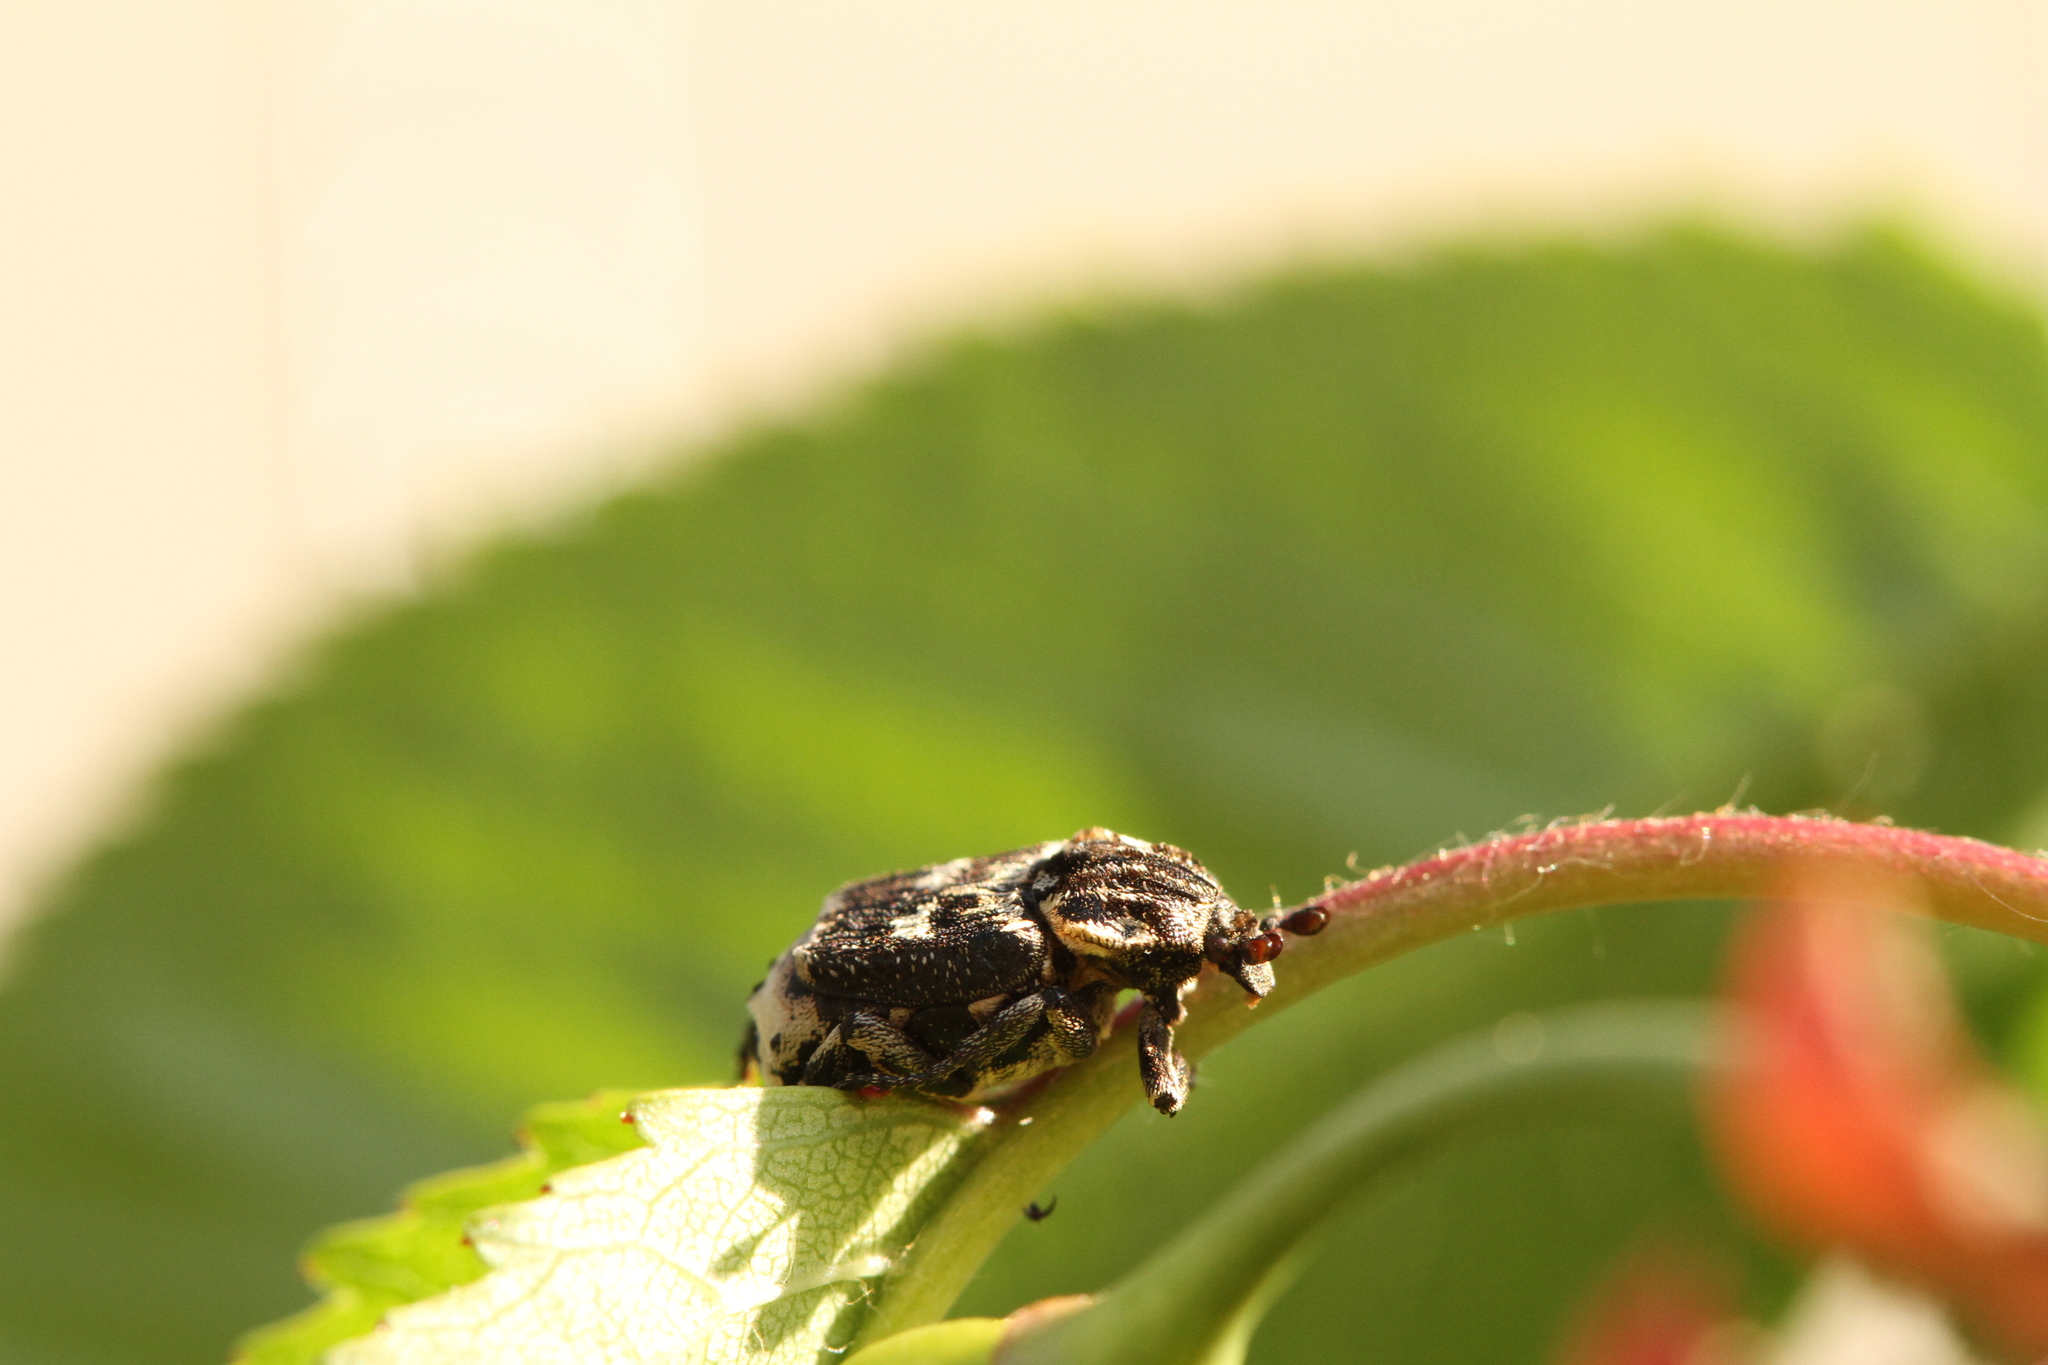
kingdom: Animalia
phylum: Arthropoda
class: Insecta
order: Coleoptera
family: Scarabaeidae
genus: Valgus
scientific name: Valgus hemipterus
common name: Bug flower chafer
